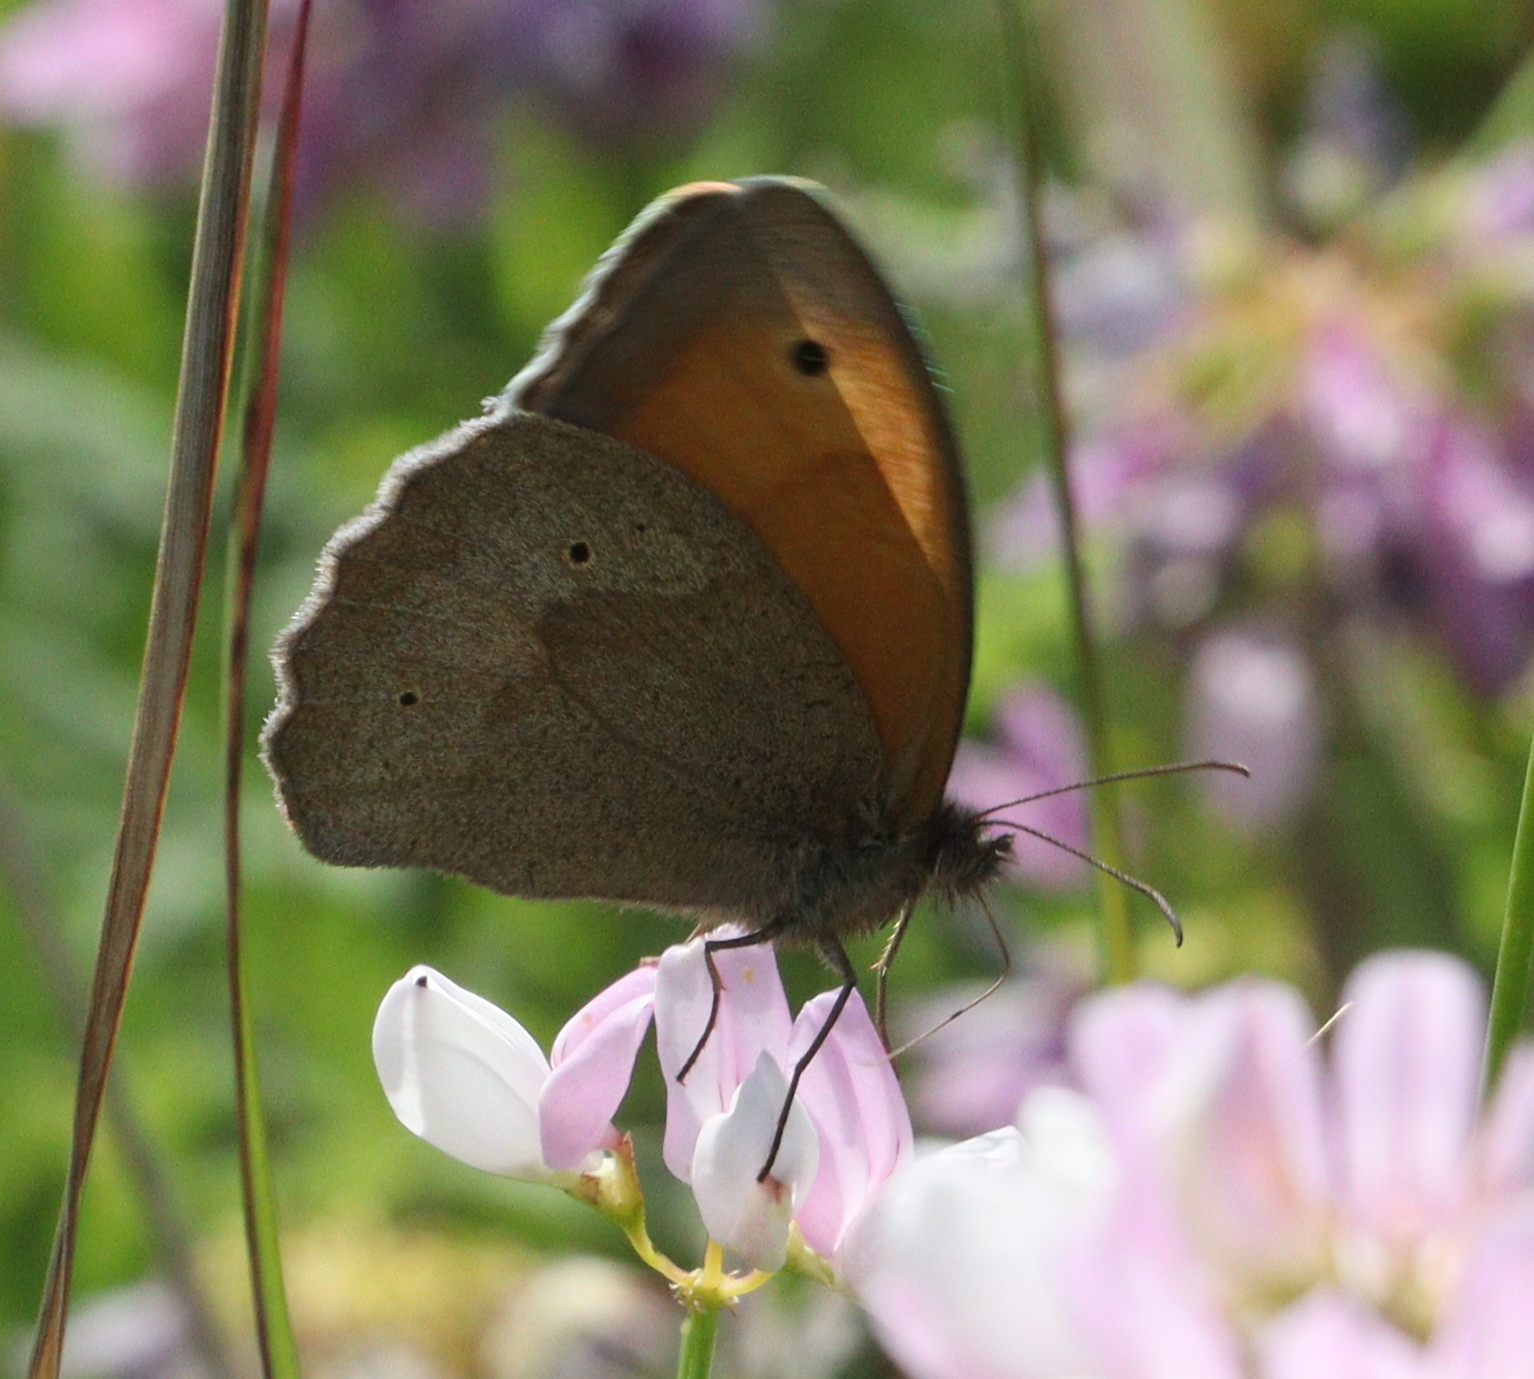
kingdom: Animalia
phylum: Arthropoda
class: Insecta
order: Lepidoptera
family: Nymphalidae
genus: Maniola
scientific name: Maniola jurtina
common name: Meadow brown
